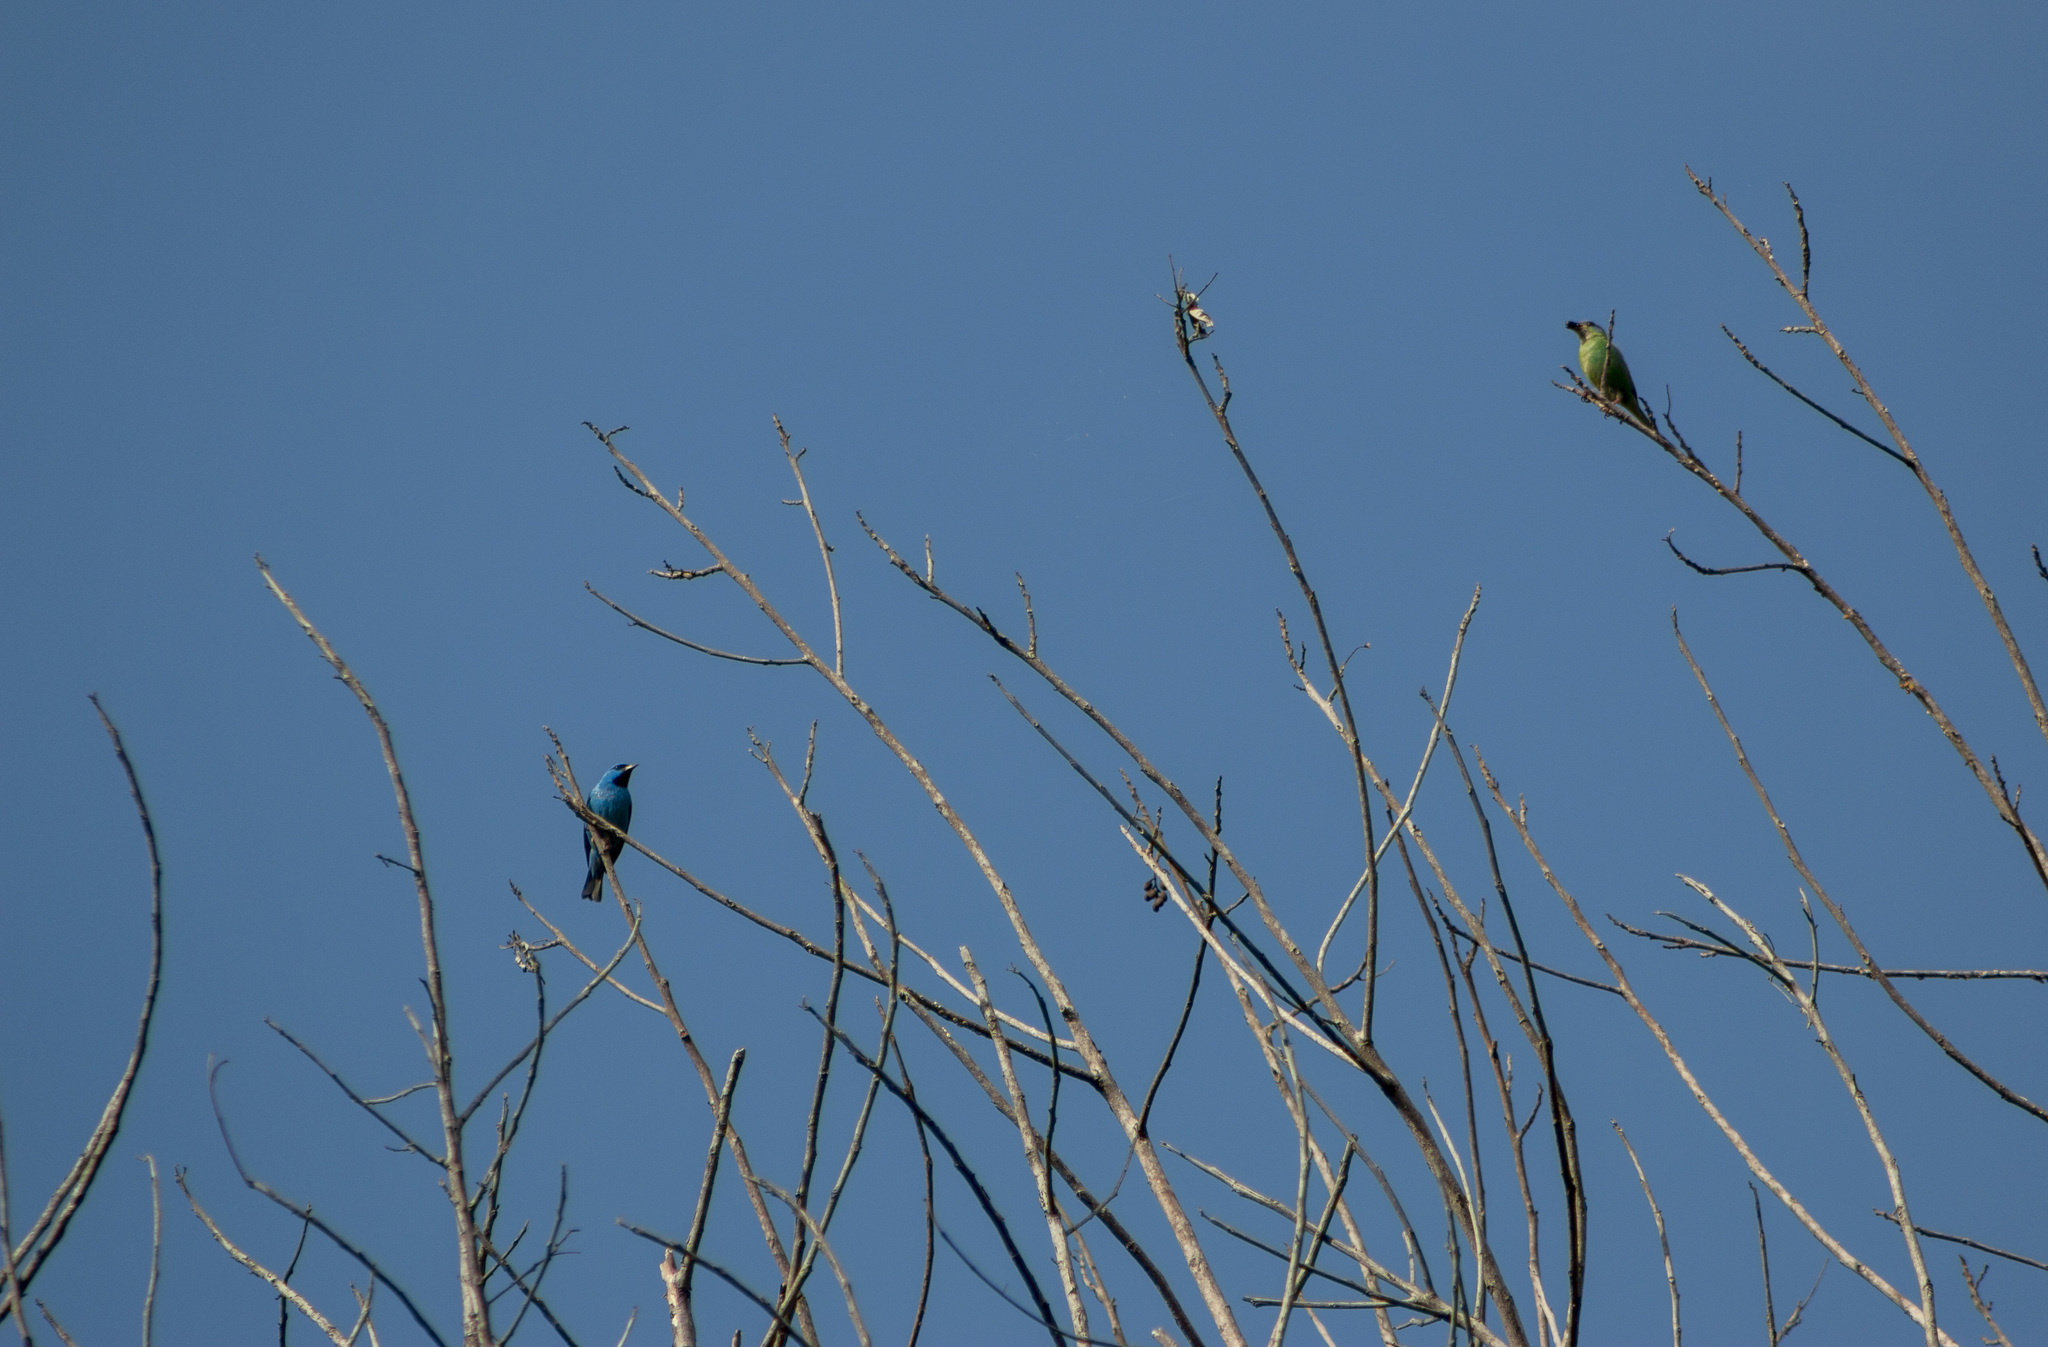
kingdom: Animalia
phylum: Chordata
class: Aves
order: Passeriformes
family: Thraupidae
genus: Dacnis
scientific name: Dacnis cayana
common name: Blue dacnis
